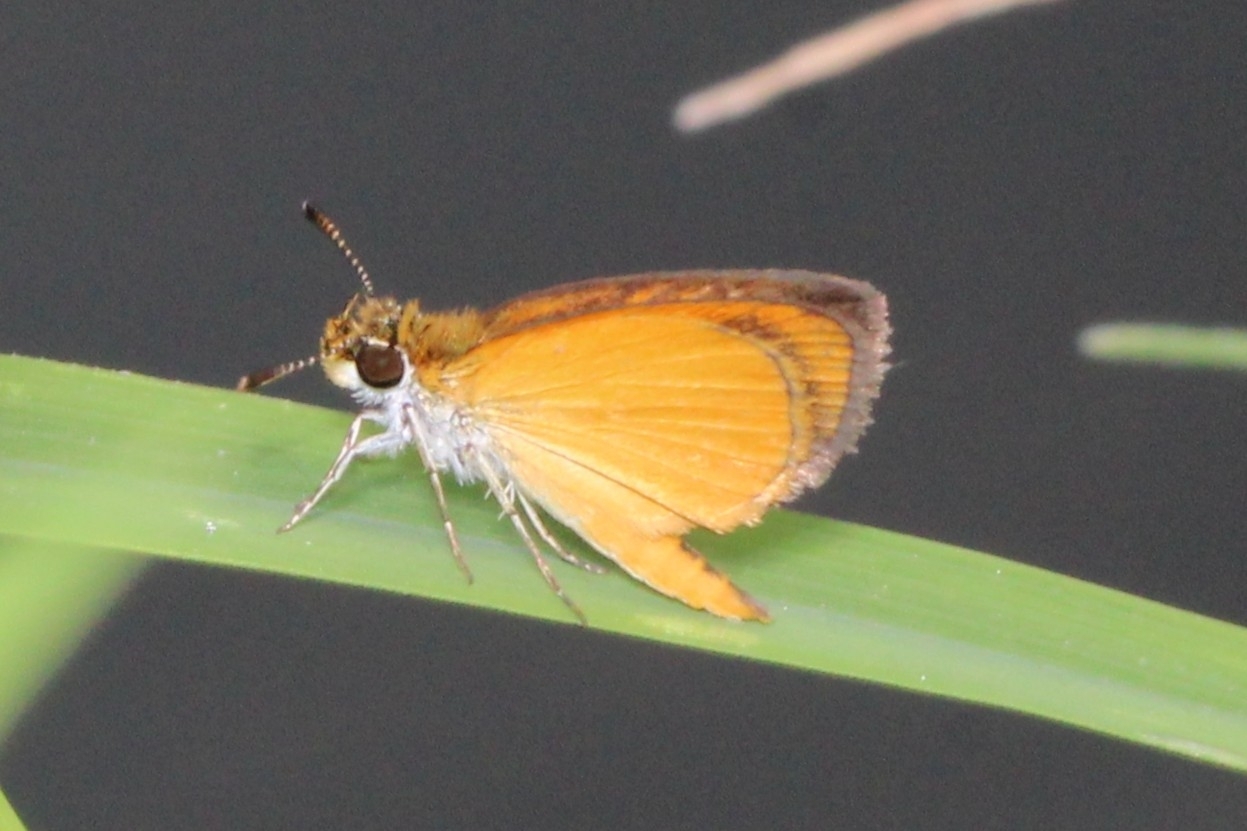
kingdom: Animalia
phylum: Arthropoda
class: Insecta
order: Lepidoptera
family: Hesperiidae
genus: Ancyloxypha
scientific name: Ancyloxypha numitor
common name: Least skipper
